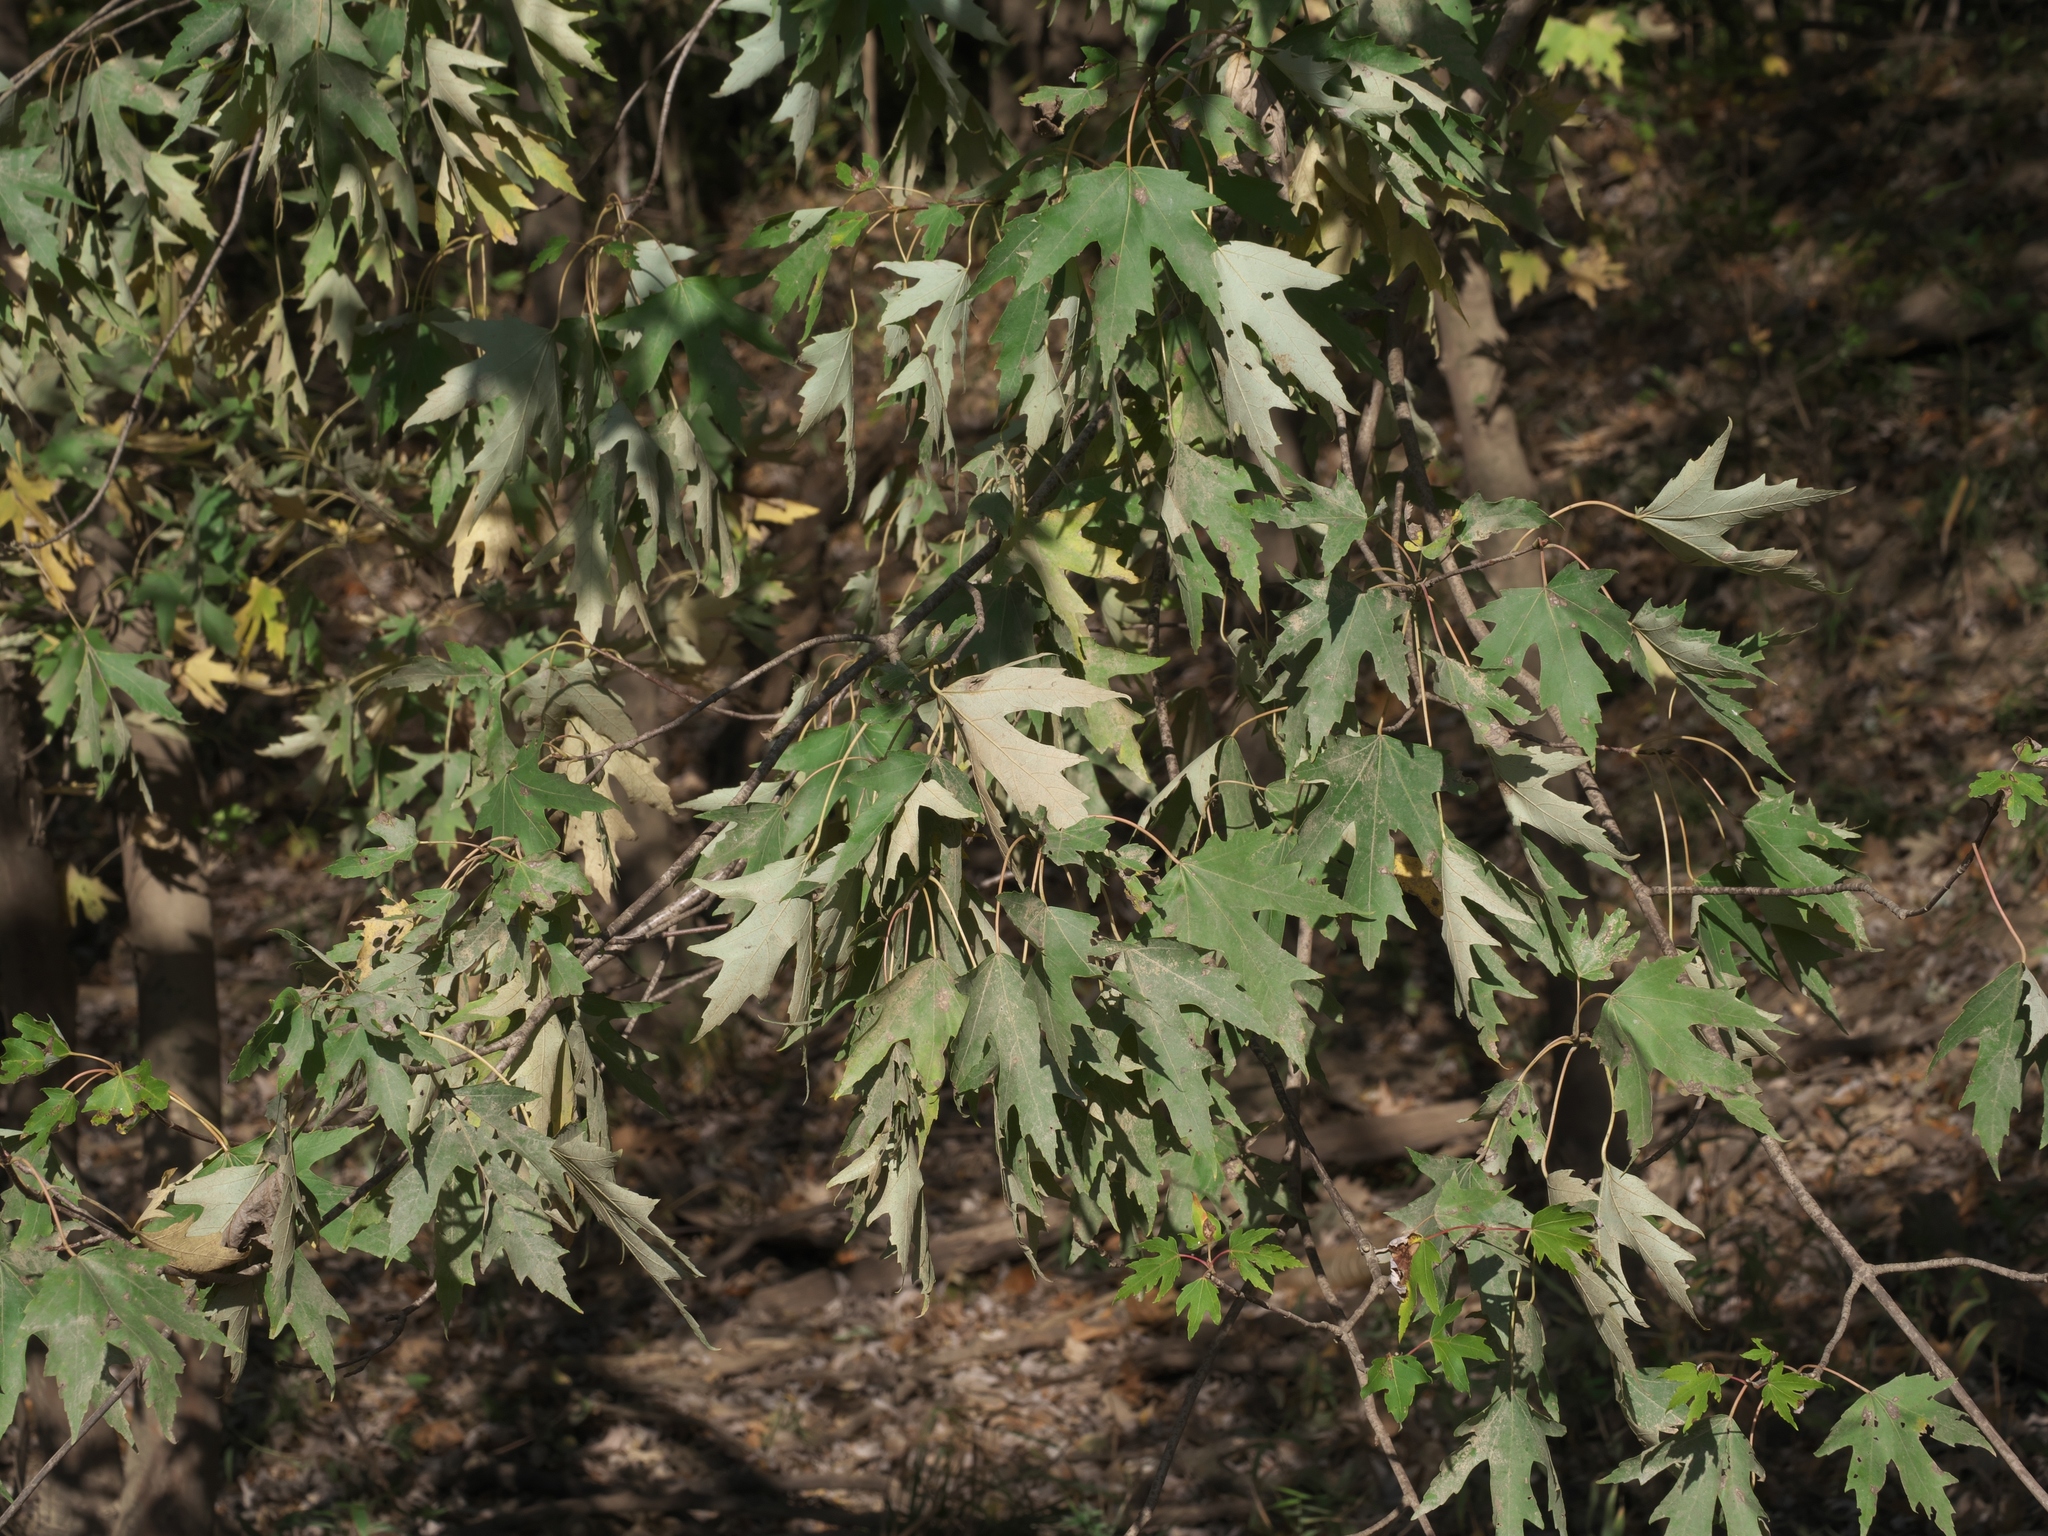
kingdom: Plantae
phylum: Tracheophyta
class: Magnoliopsida
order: Sapindales
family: Sapindaceae
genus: Acer
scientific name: Acer saccharinum
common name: Silver maple
